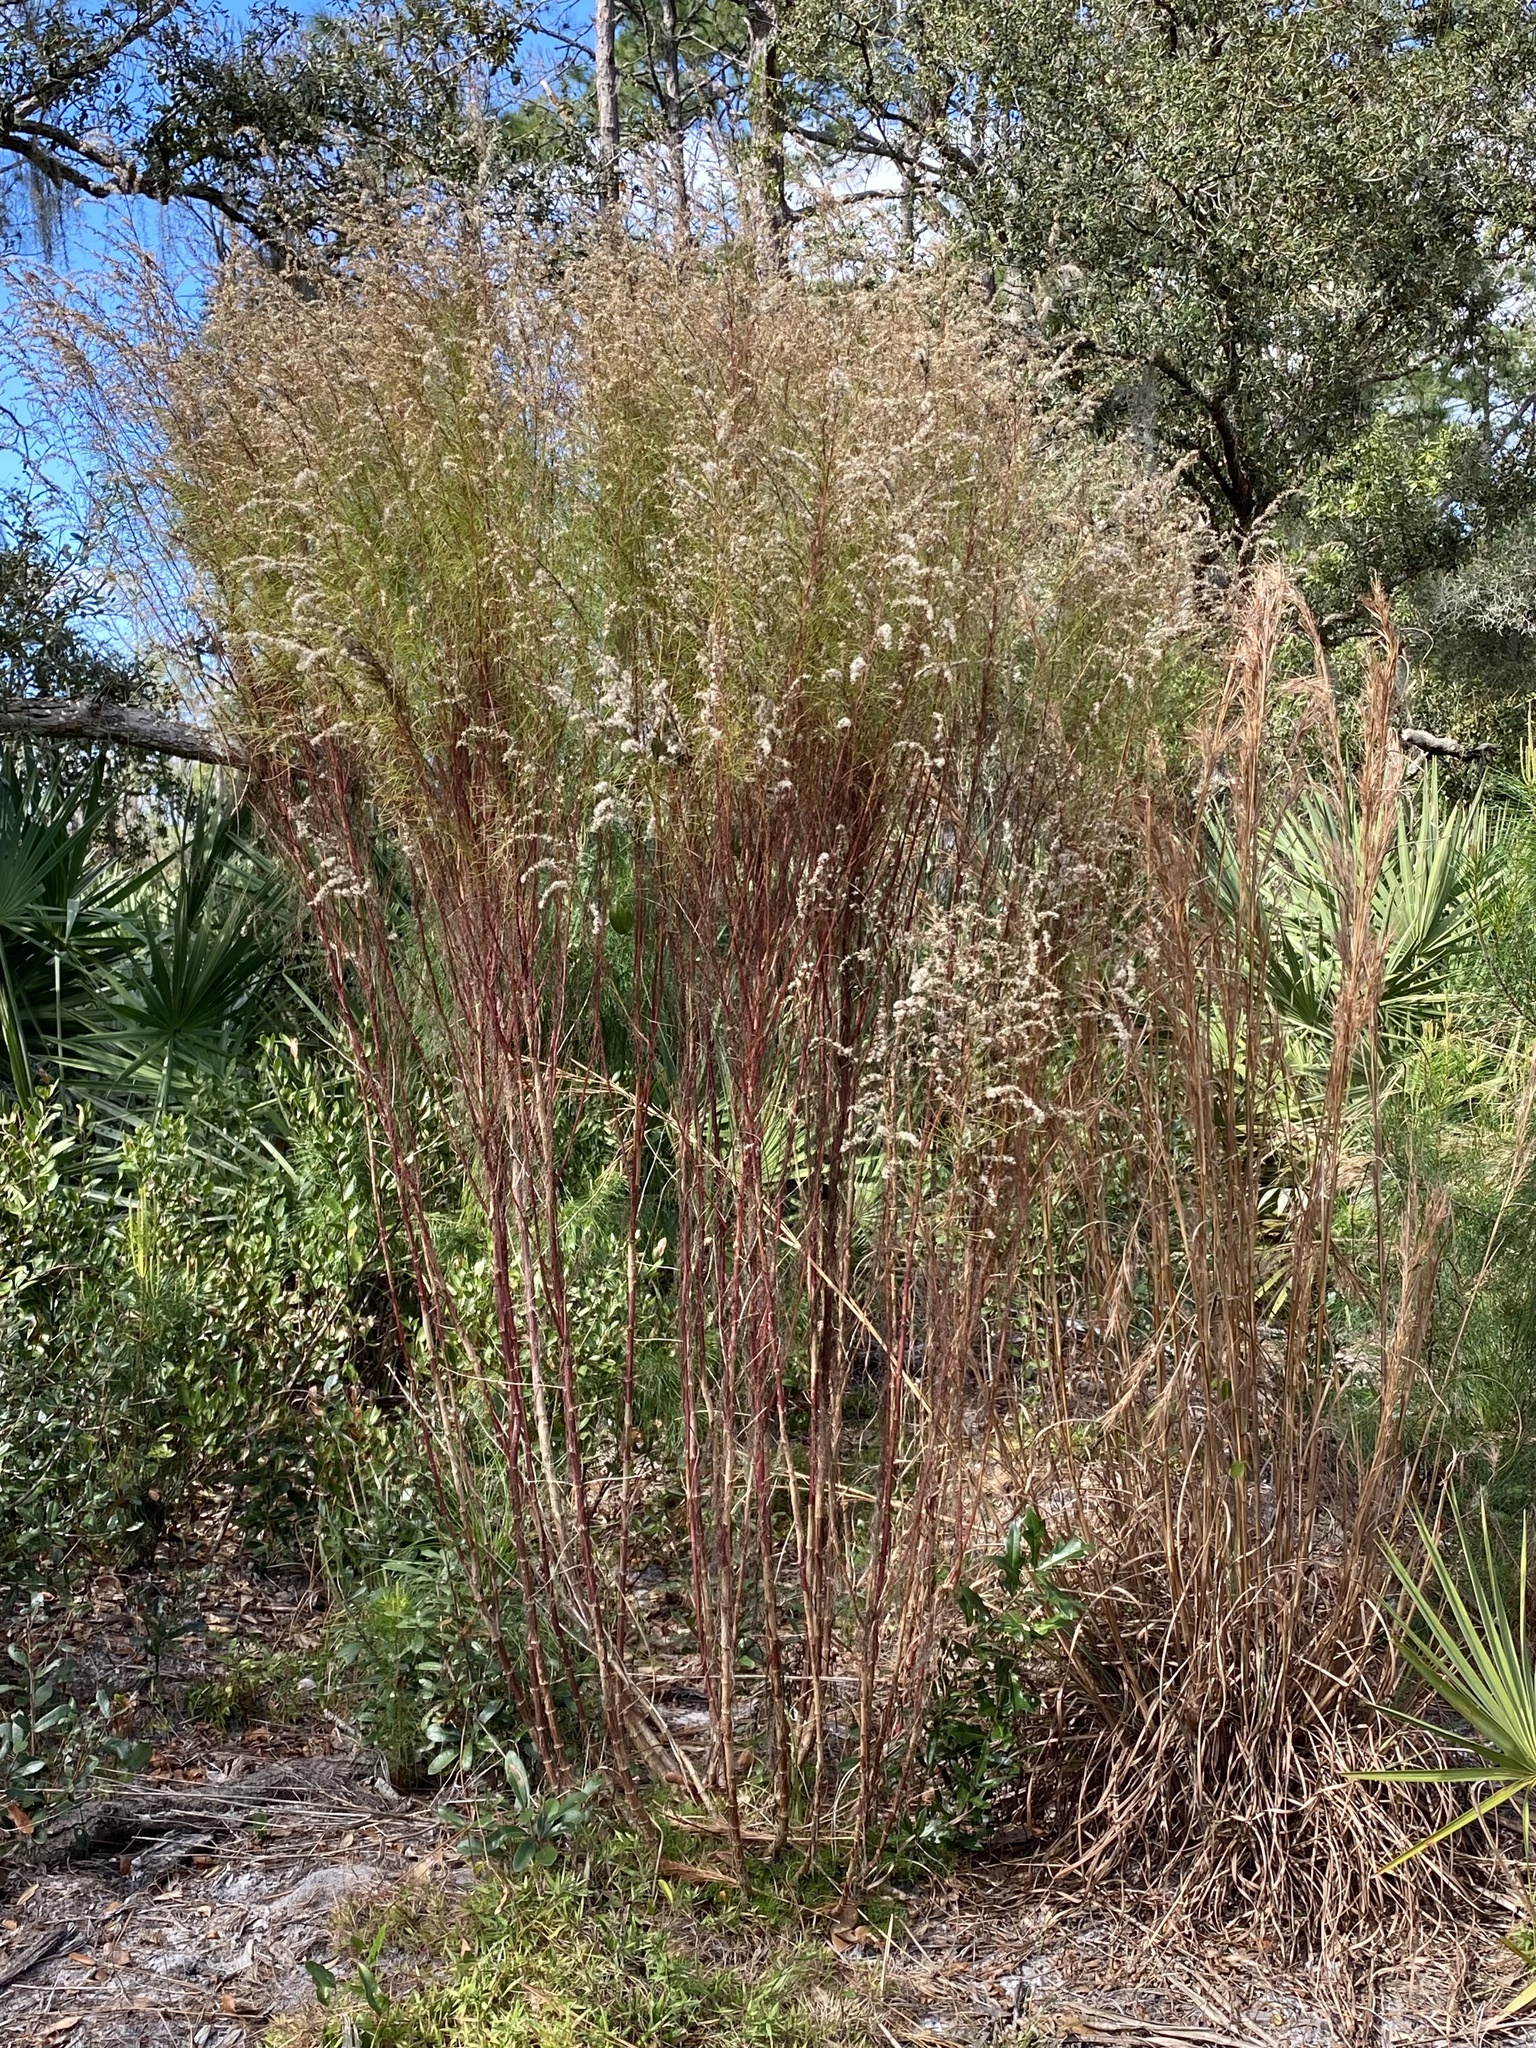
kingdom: Plantae
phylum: Tracheophyta
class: Magnoliopsida
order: Asterales
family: Asteraceae
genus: Eupatorium
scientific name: Eupatorium capillifolium
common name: Dog-fennel
